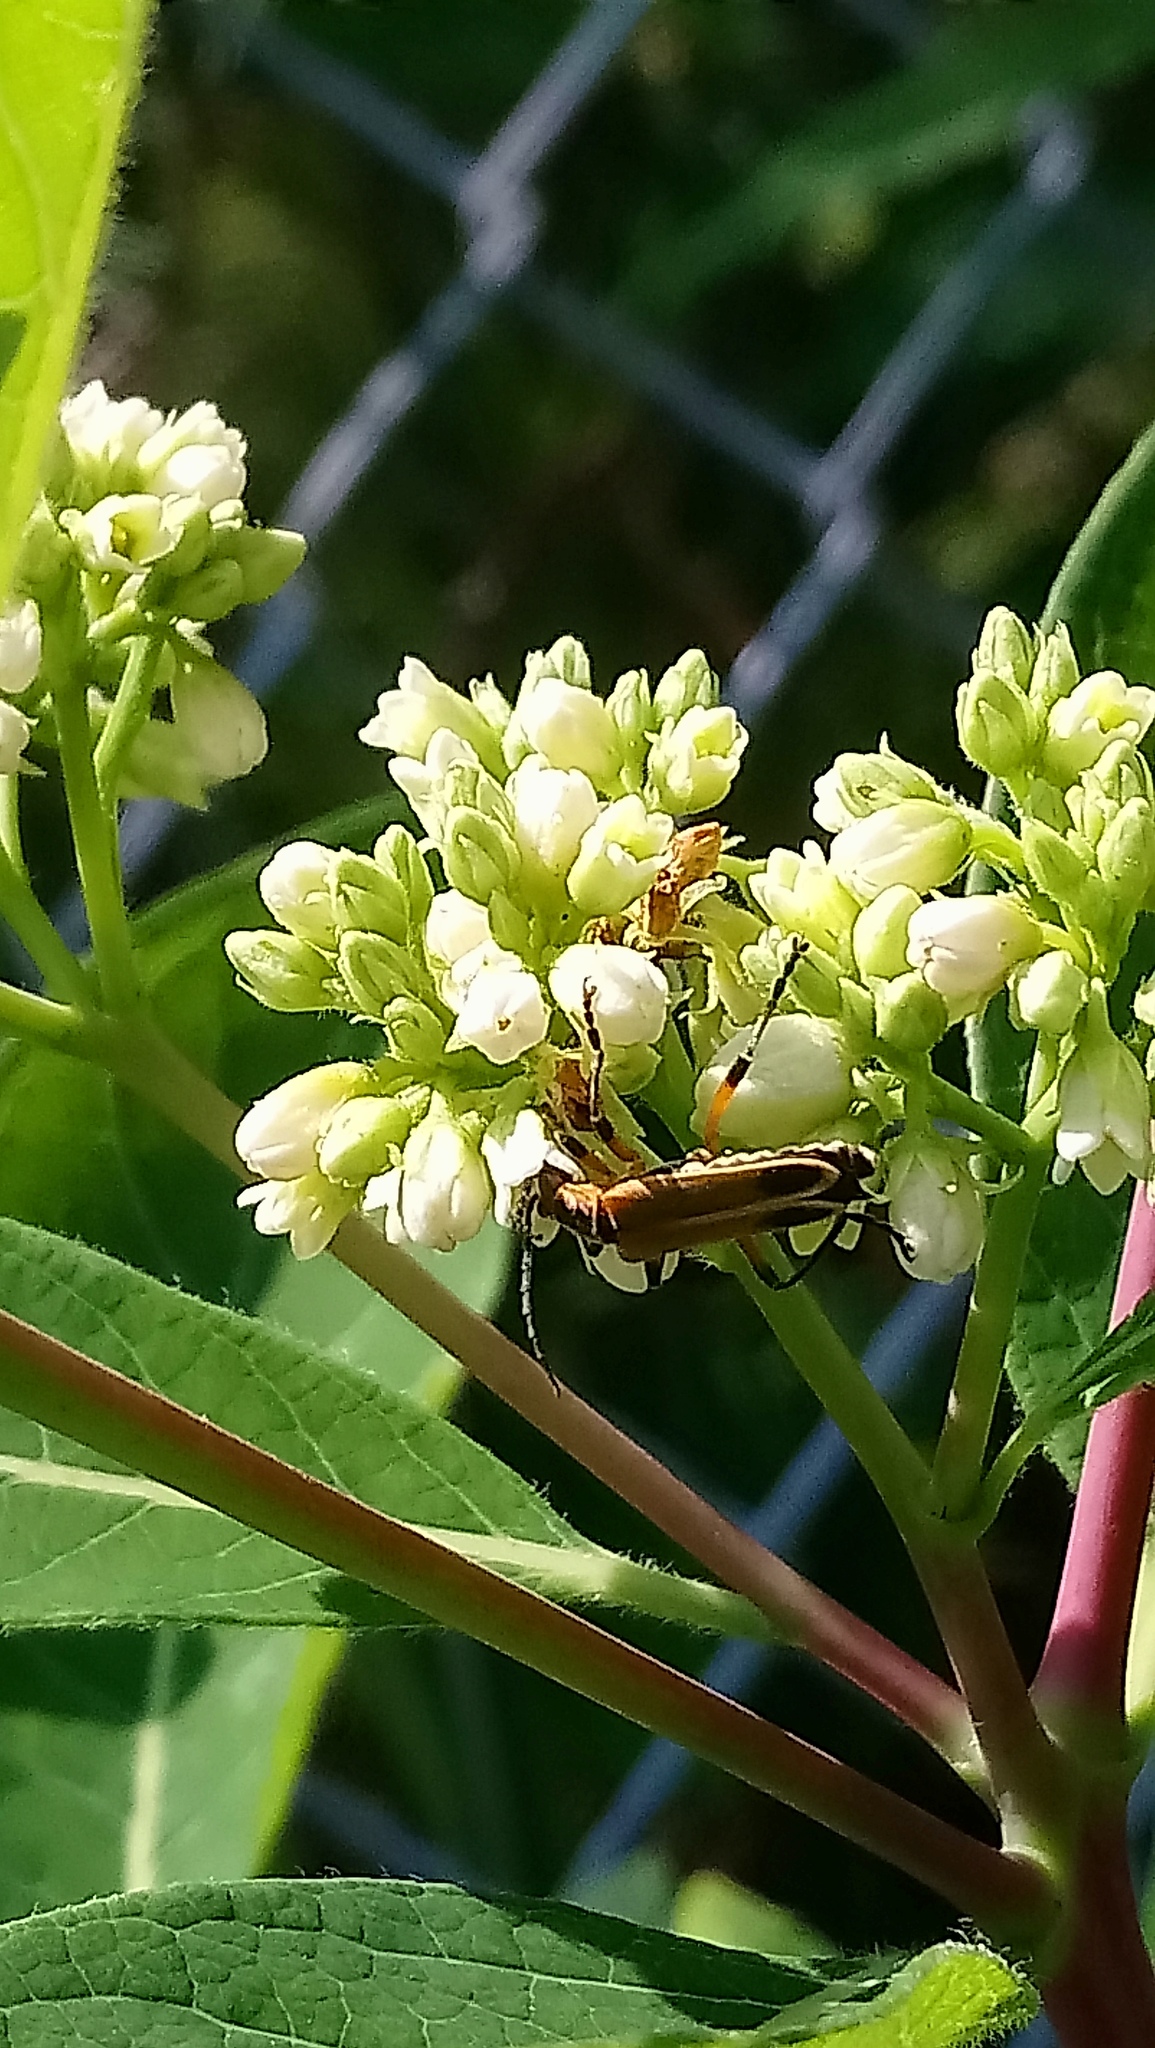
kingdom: Animalia
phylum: Arthropoda
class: Insecta
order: Coleoptera
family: Cantharidae
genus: Chauliognathus
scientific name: Chauliognathus marginatus
